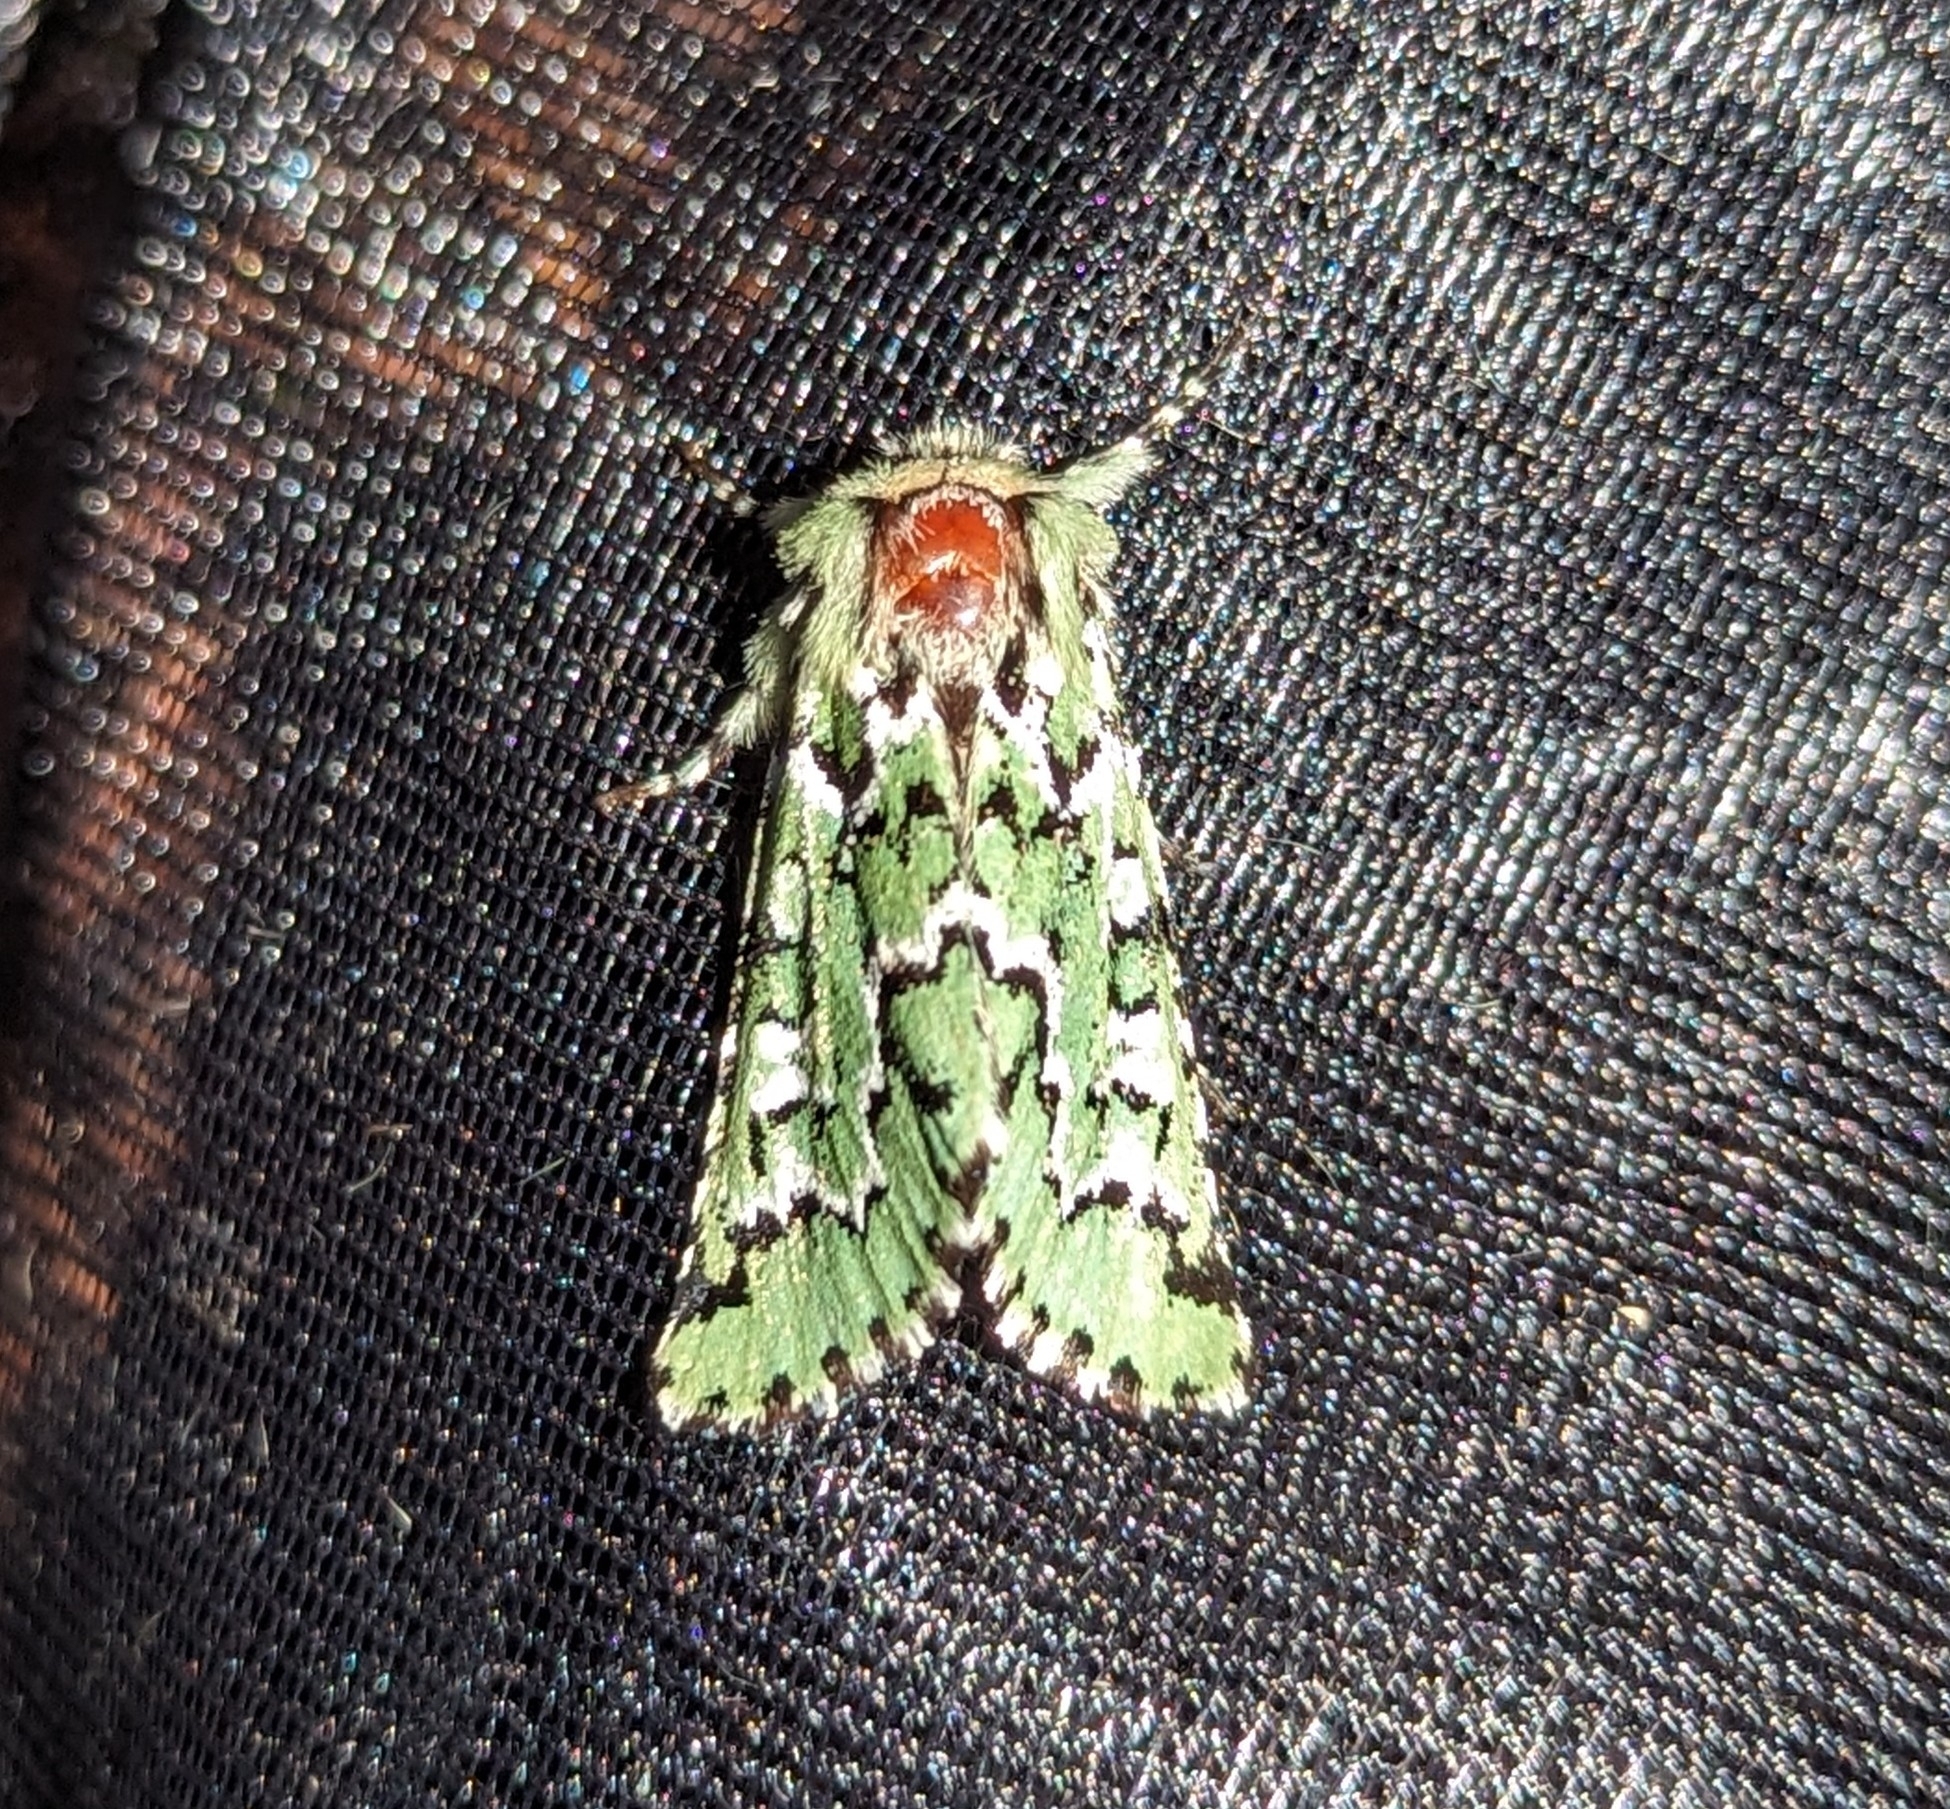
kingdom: Animalia
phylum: Arthropoda
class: Insecta
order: Lepidoptera
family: Noctuidae
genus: Feralia
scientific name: Feralia deceptiva
